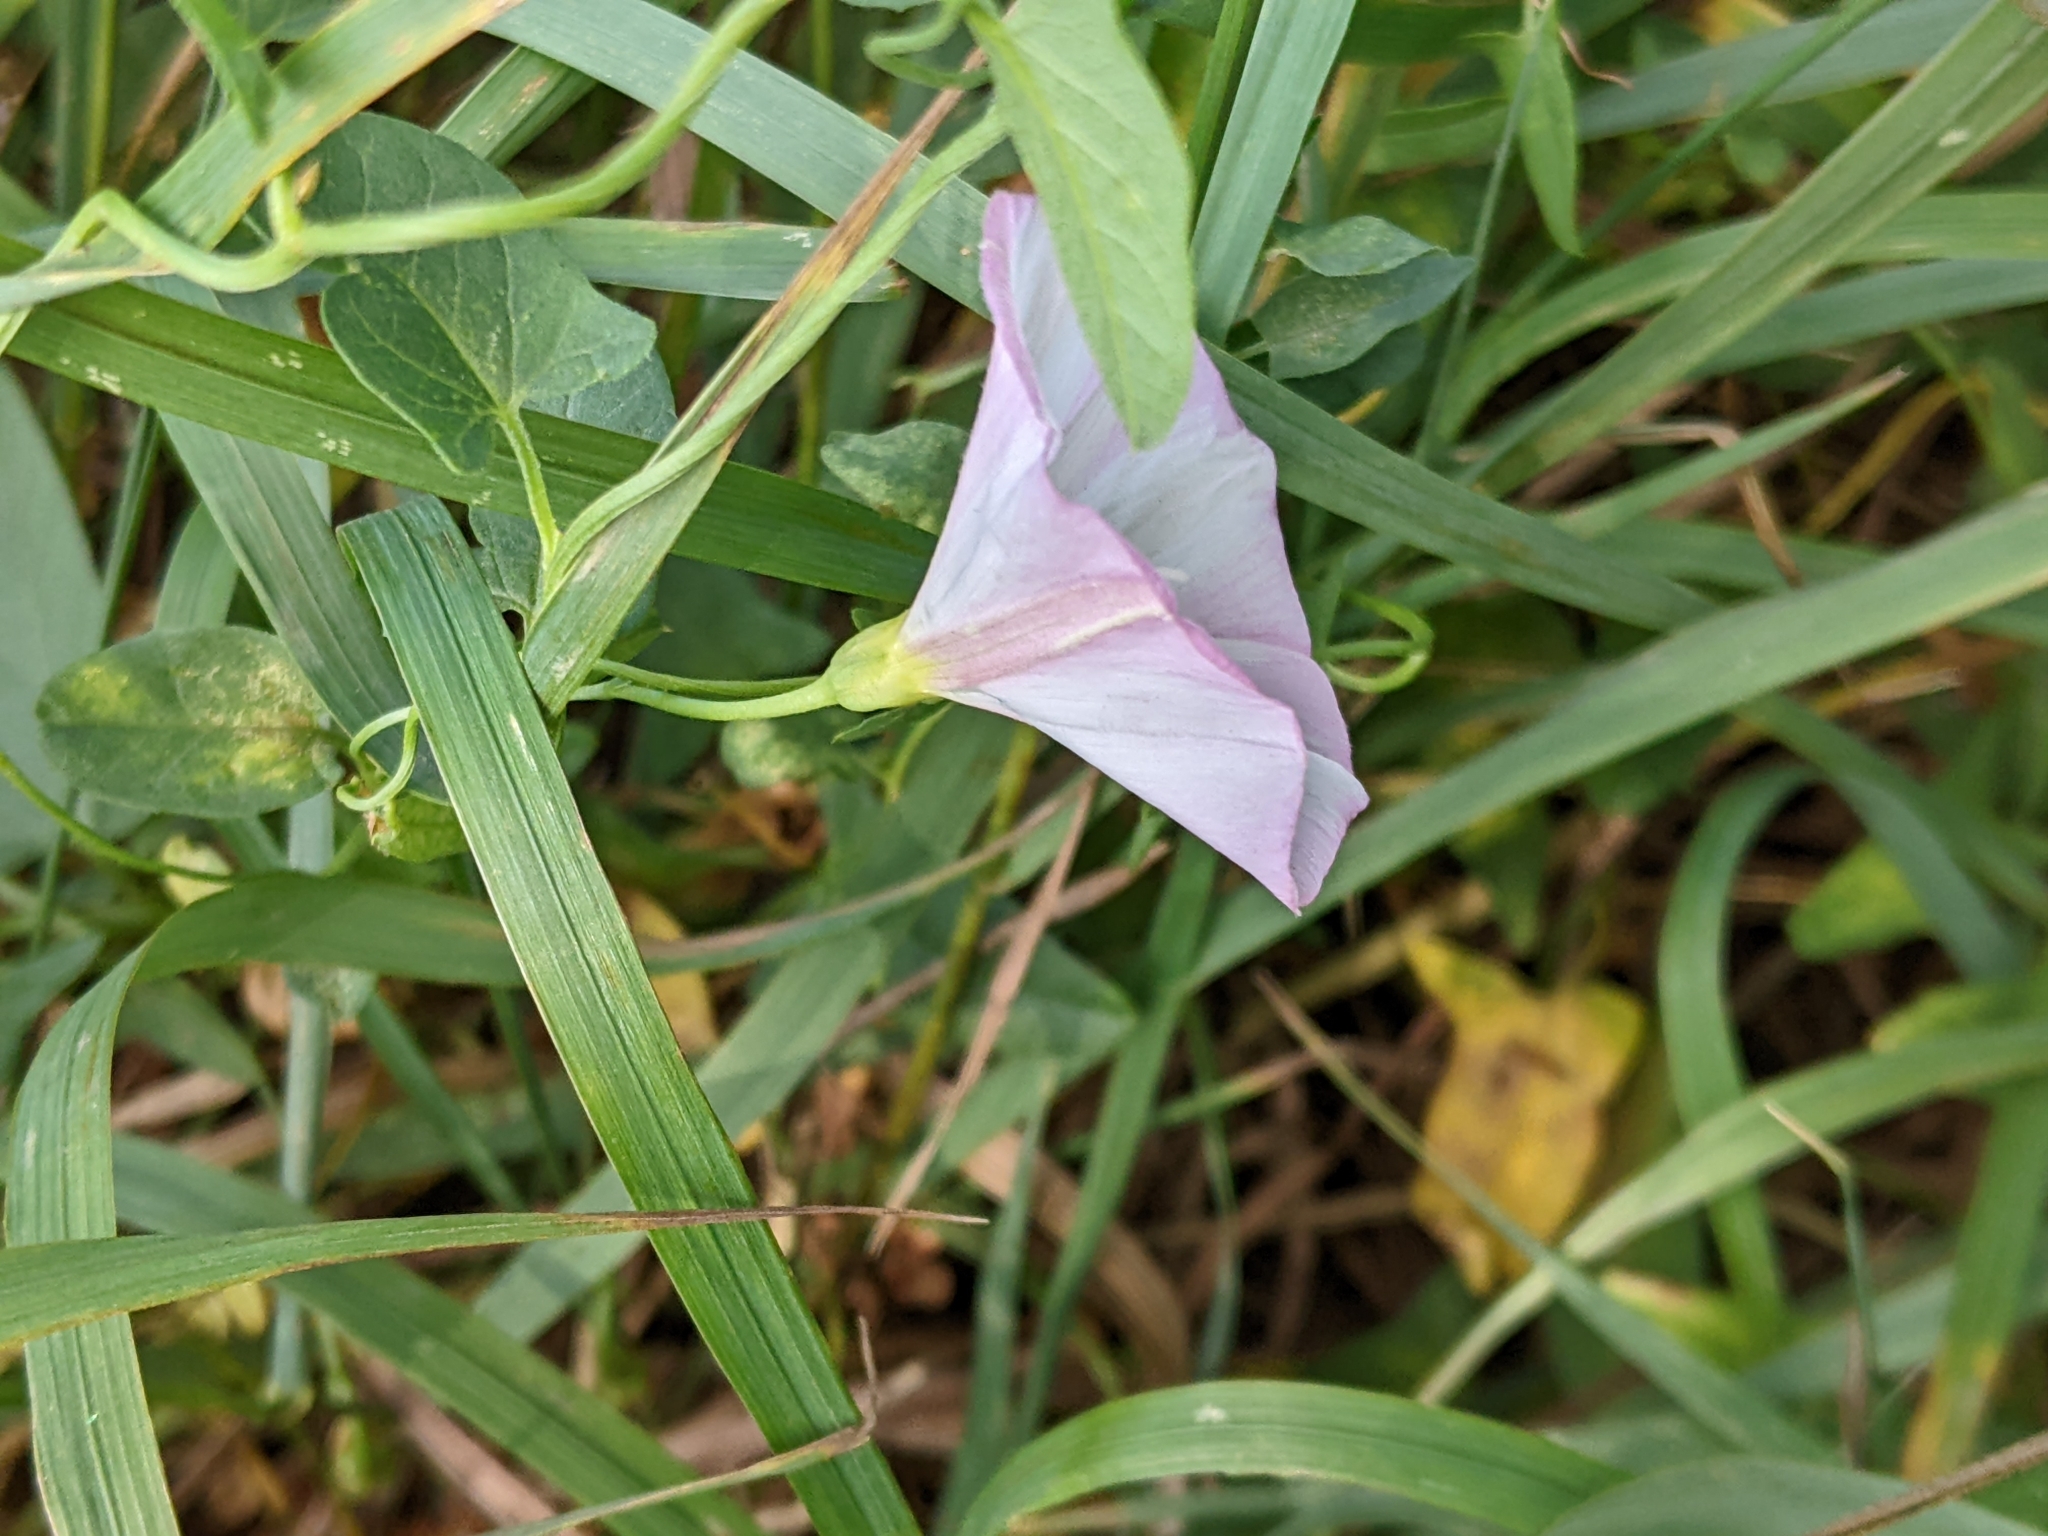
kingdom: Plantae
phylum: Tracheophyta
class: Magnoliopsida
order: Solanales
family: Convolvulaceae
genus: Convolvulus
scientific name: Convolvulus arvensis
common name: Field bindweed
